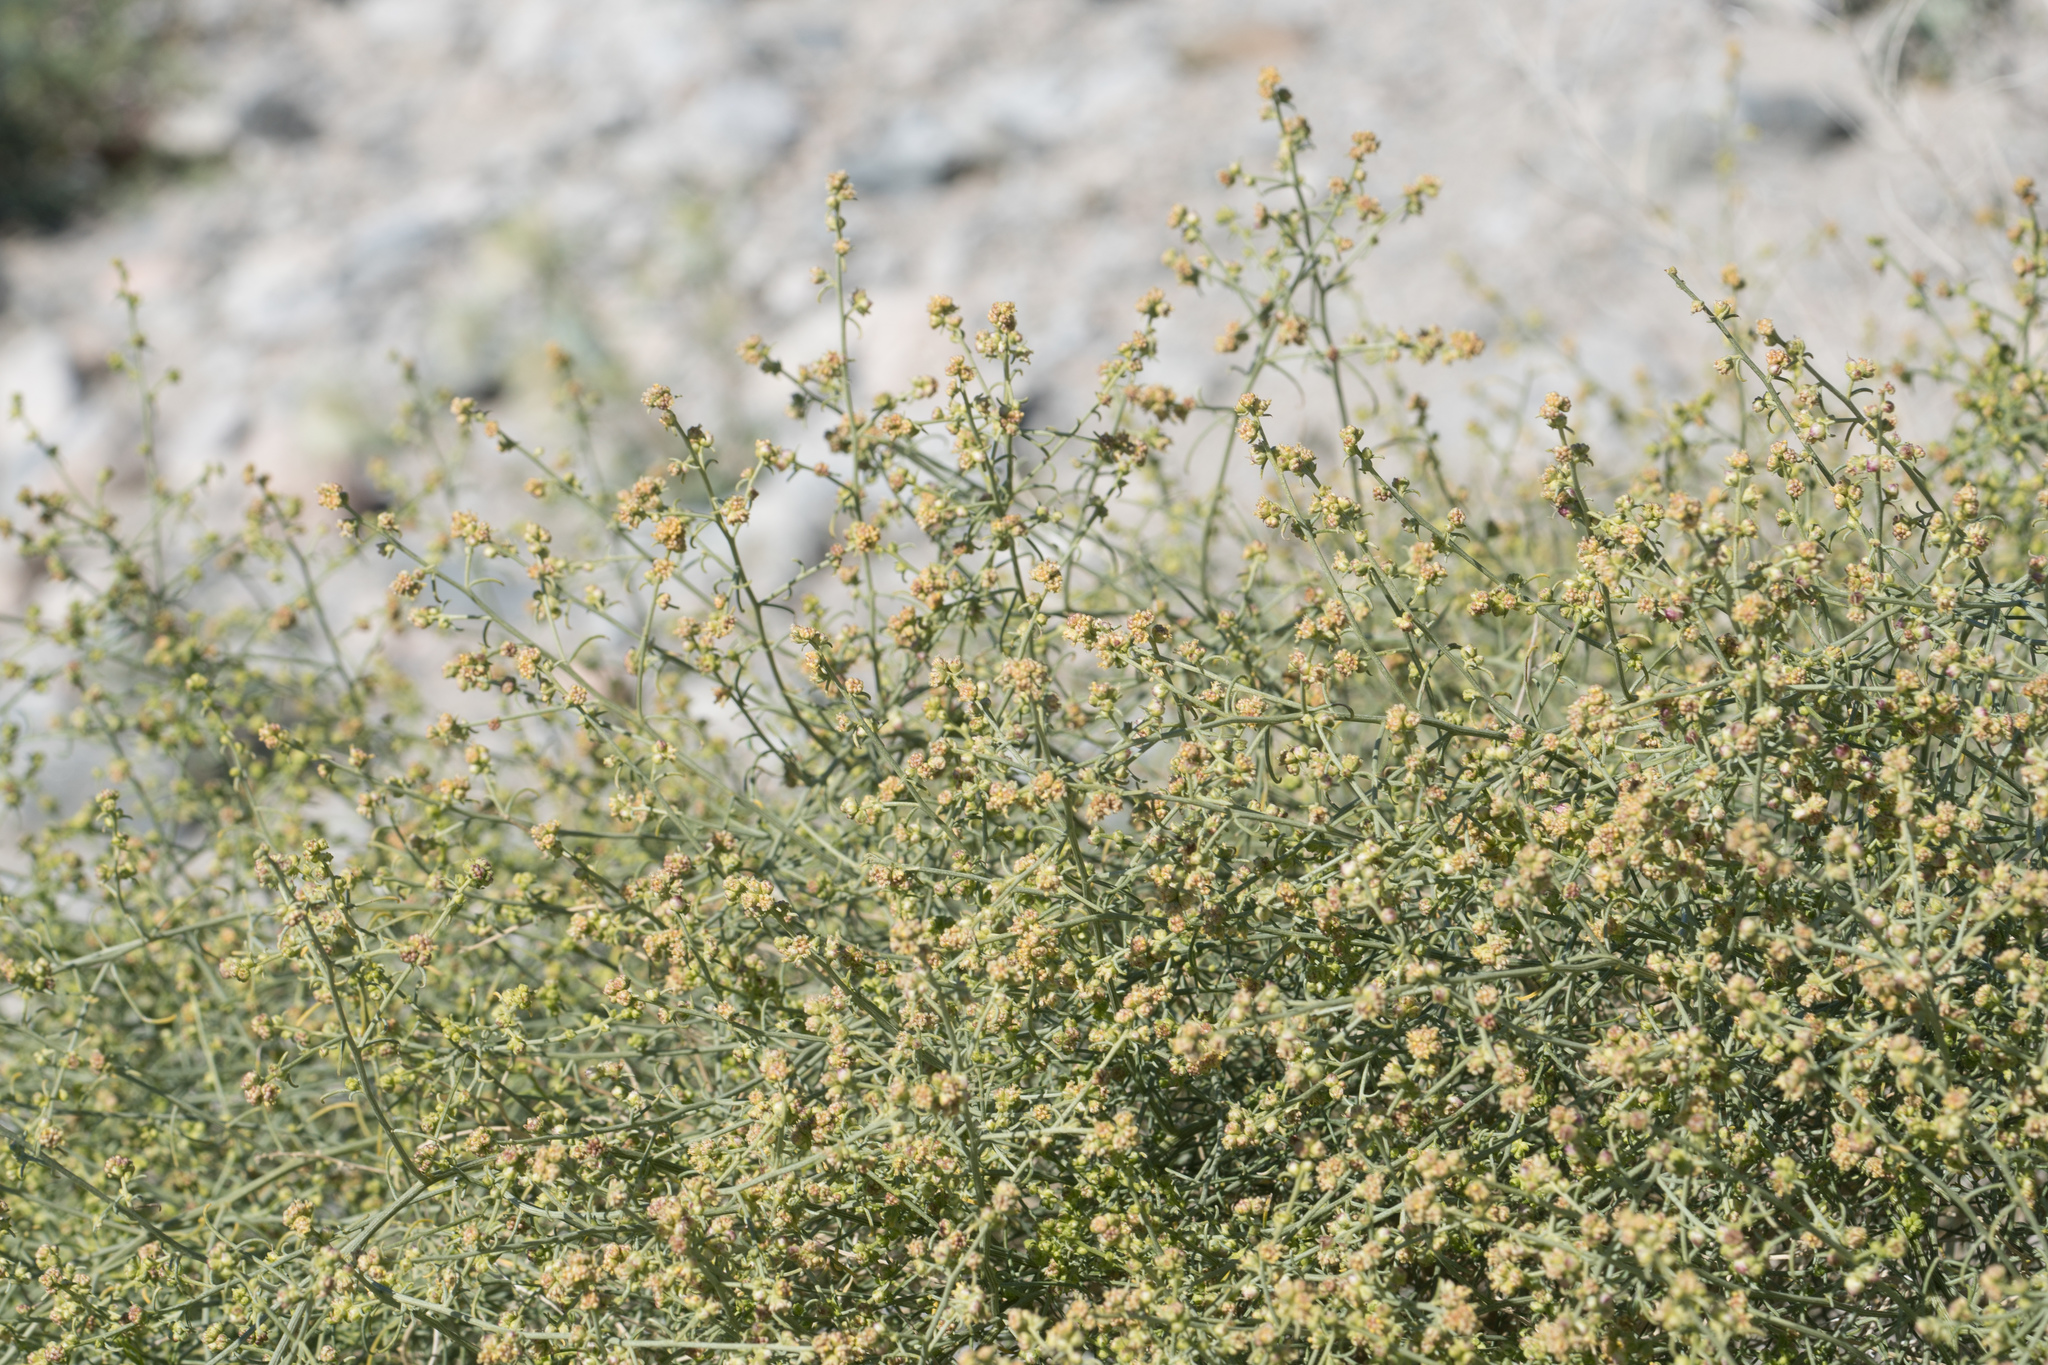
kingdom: Plantae
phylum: Tracheophyta
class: Magnoliopsida
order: Asterales
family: Asteraceae
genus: Ambrosia
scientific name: Ambrosia salsola
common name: Burrobrush
